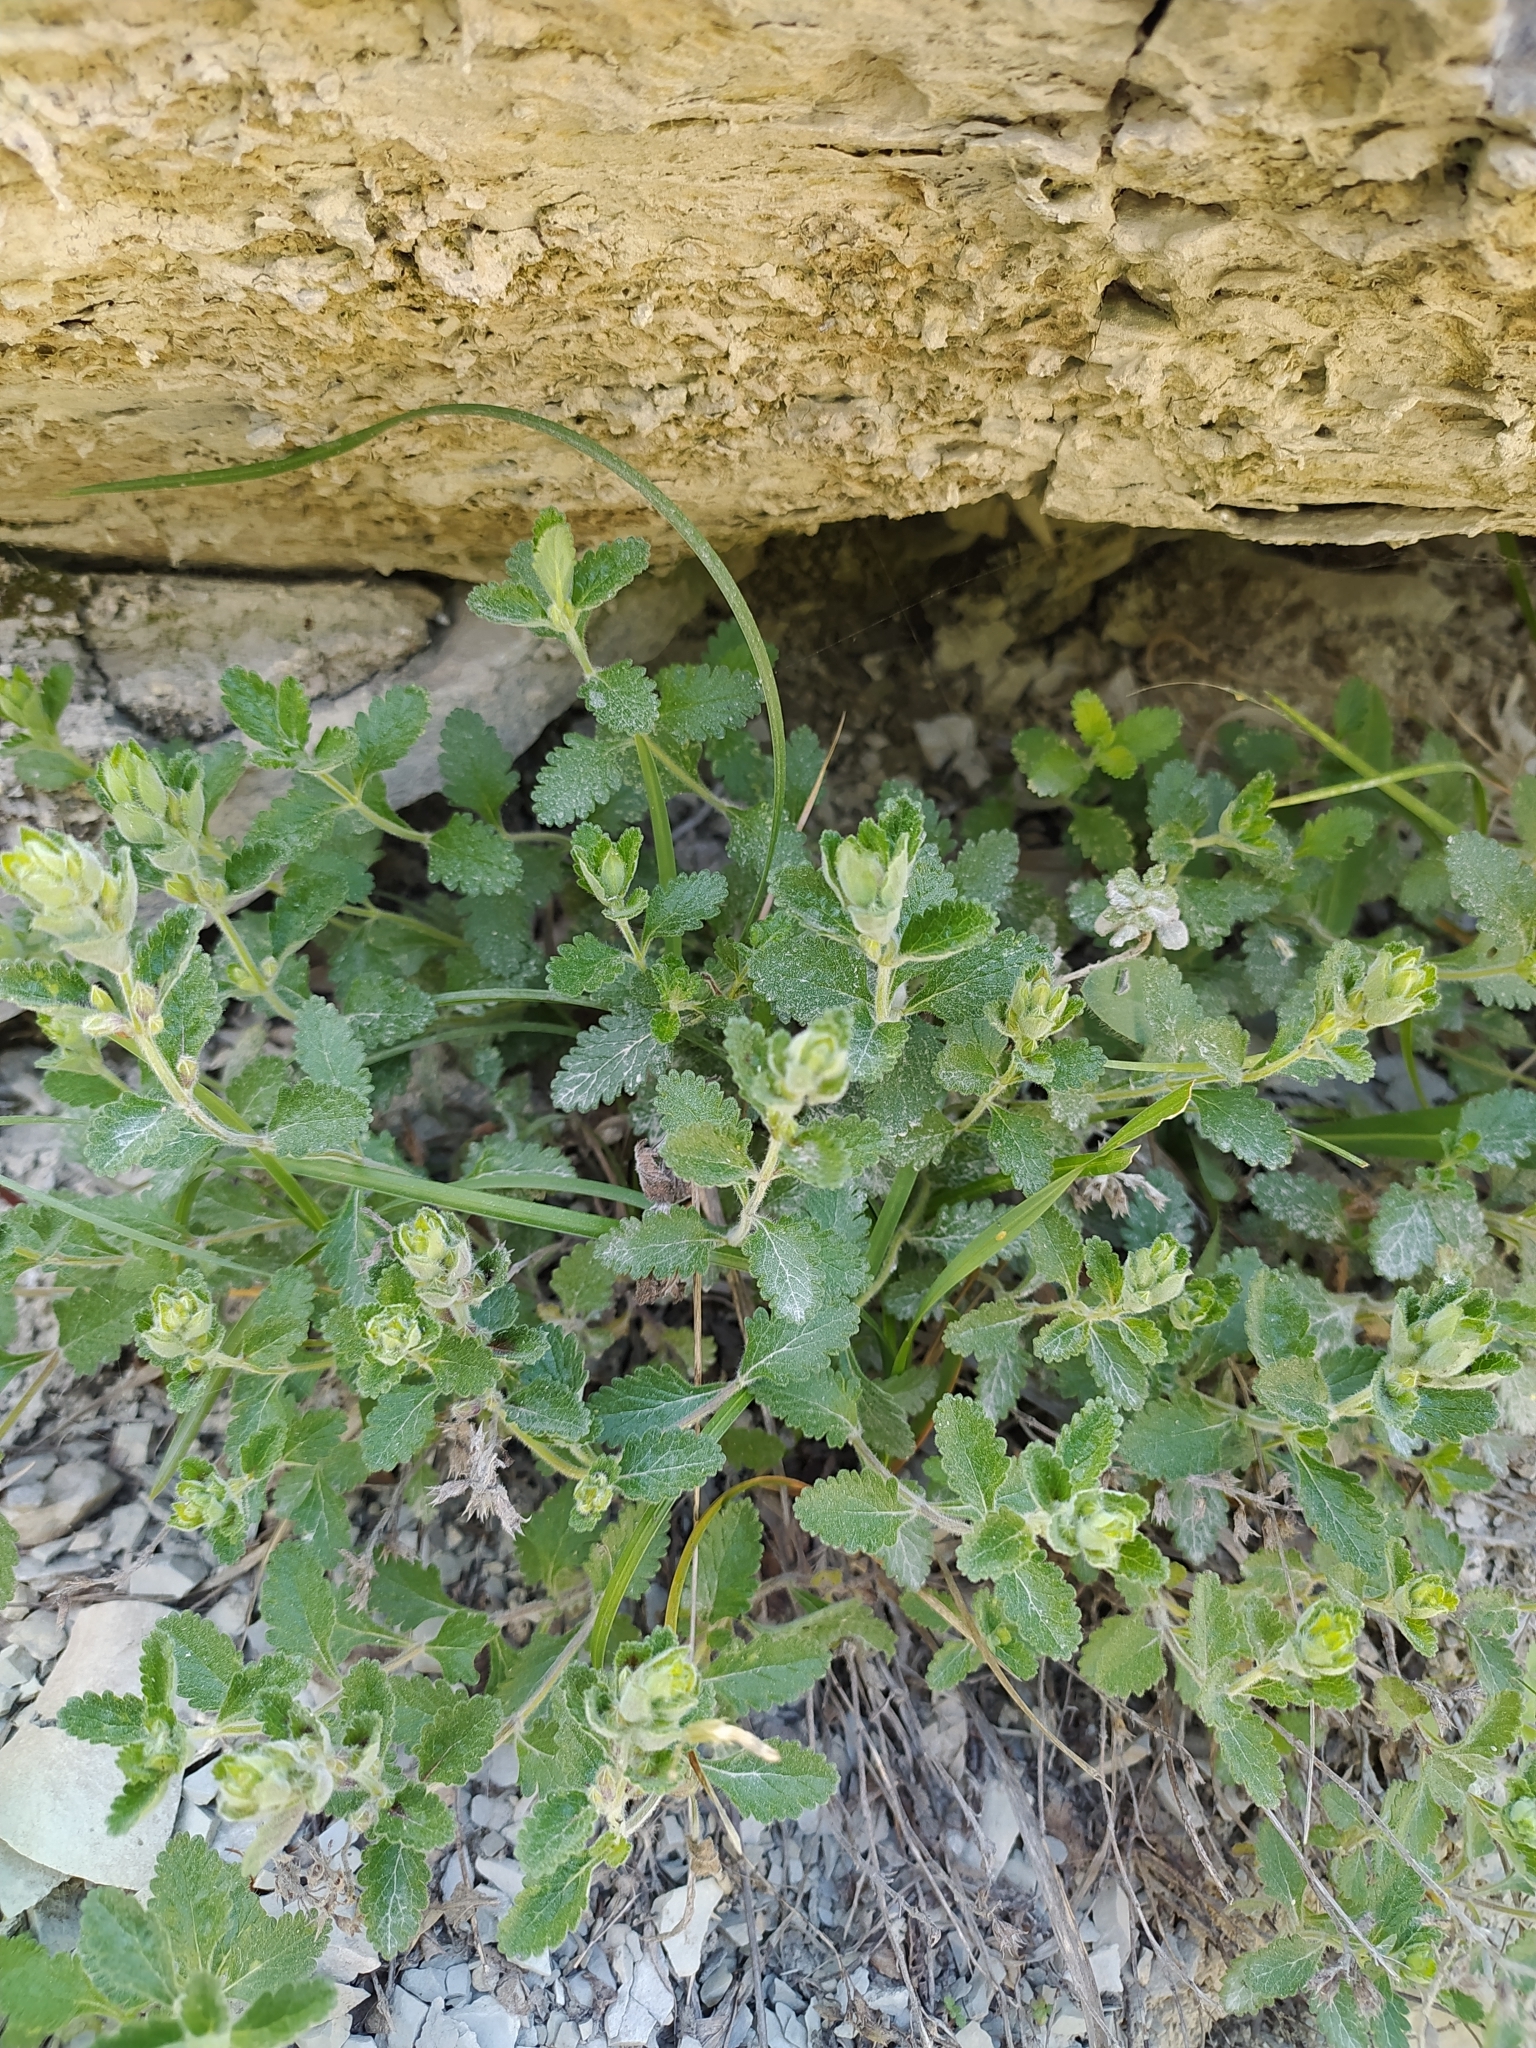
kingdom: Plantae
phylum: Tracheophyta
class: Magnoliopsida
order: Lamiales
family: Lamiaceae
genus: Teucrium
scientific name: Teucrium chamaedrys
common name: Wall germander
